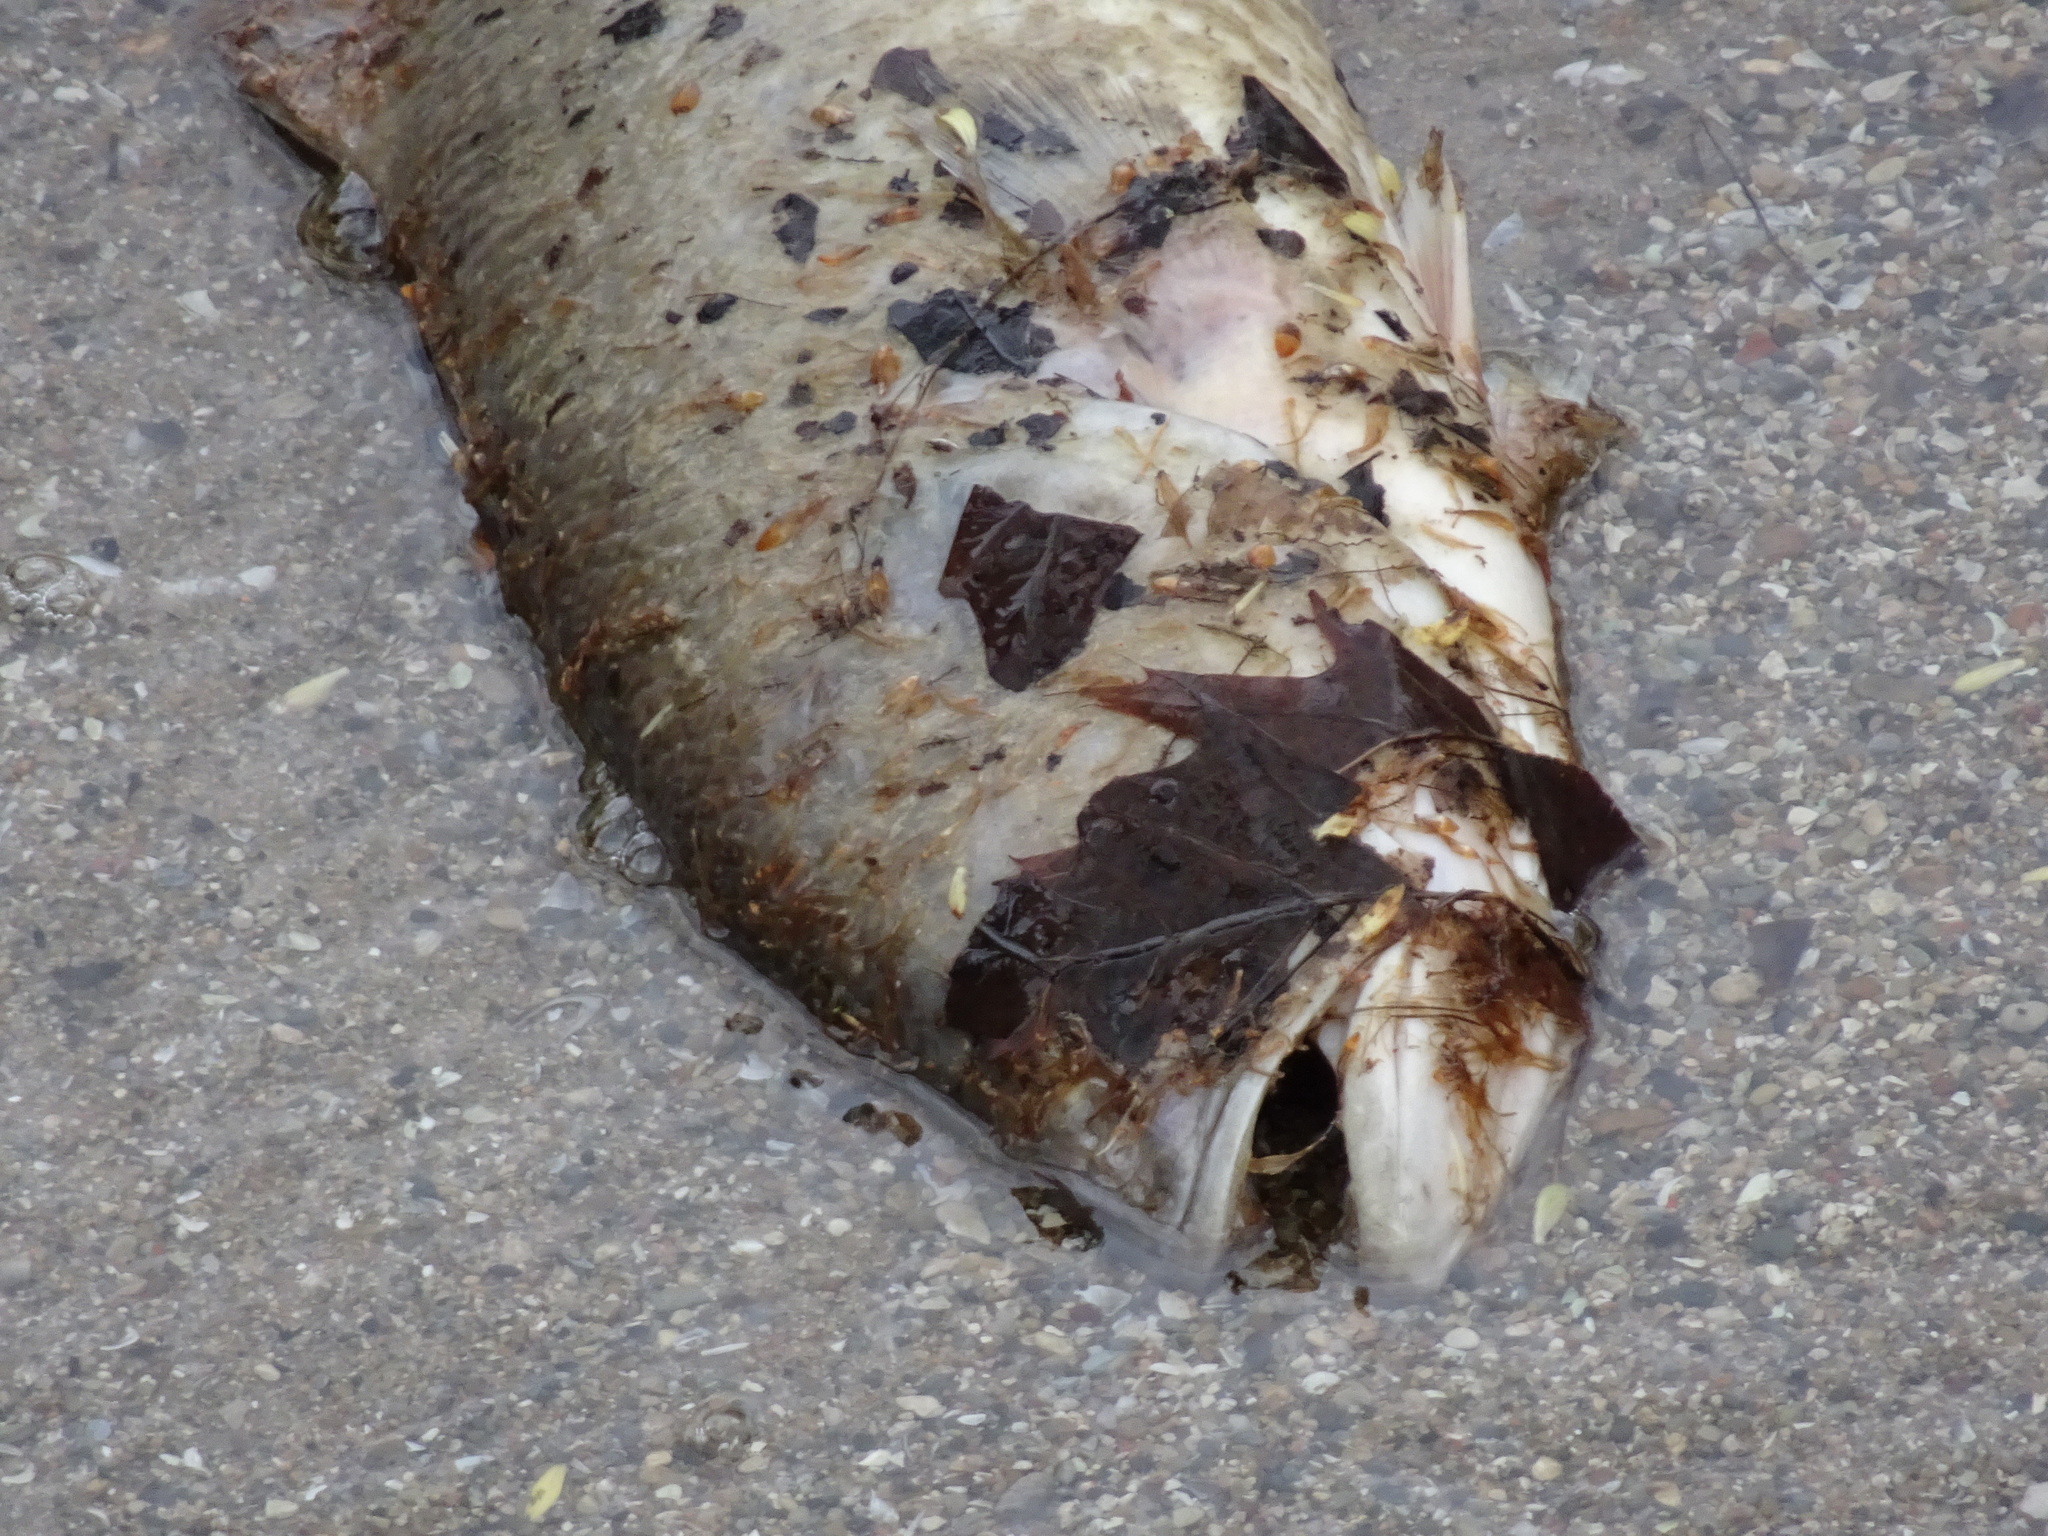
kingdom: Animalia
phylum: Chordata
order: Perciformes
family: Centrarchidae
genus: Micropterus
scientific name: Micropterus
